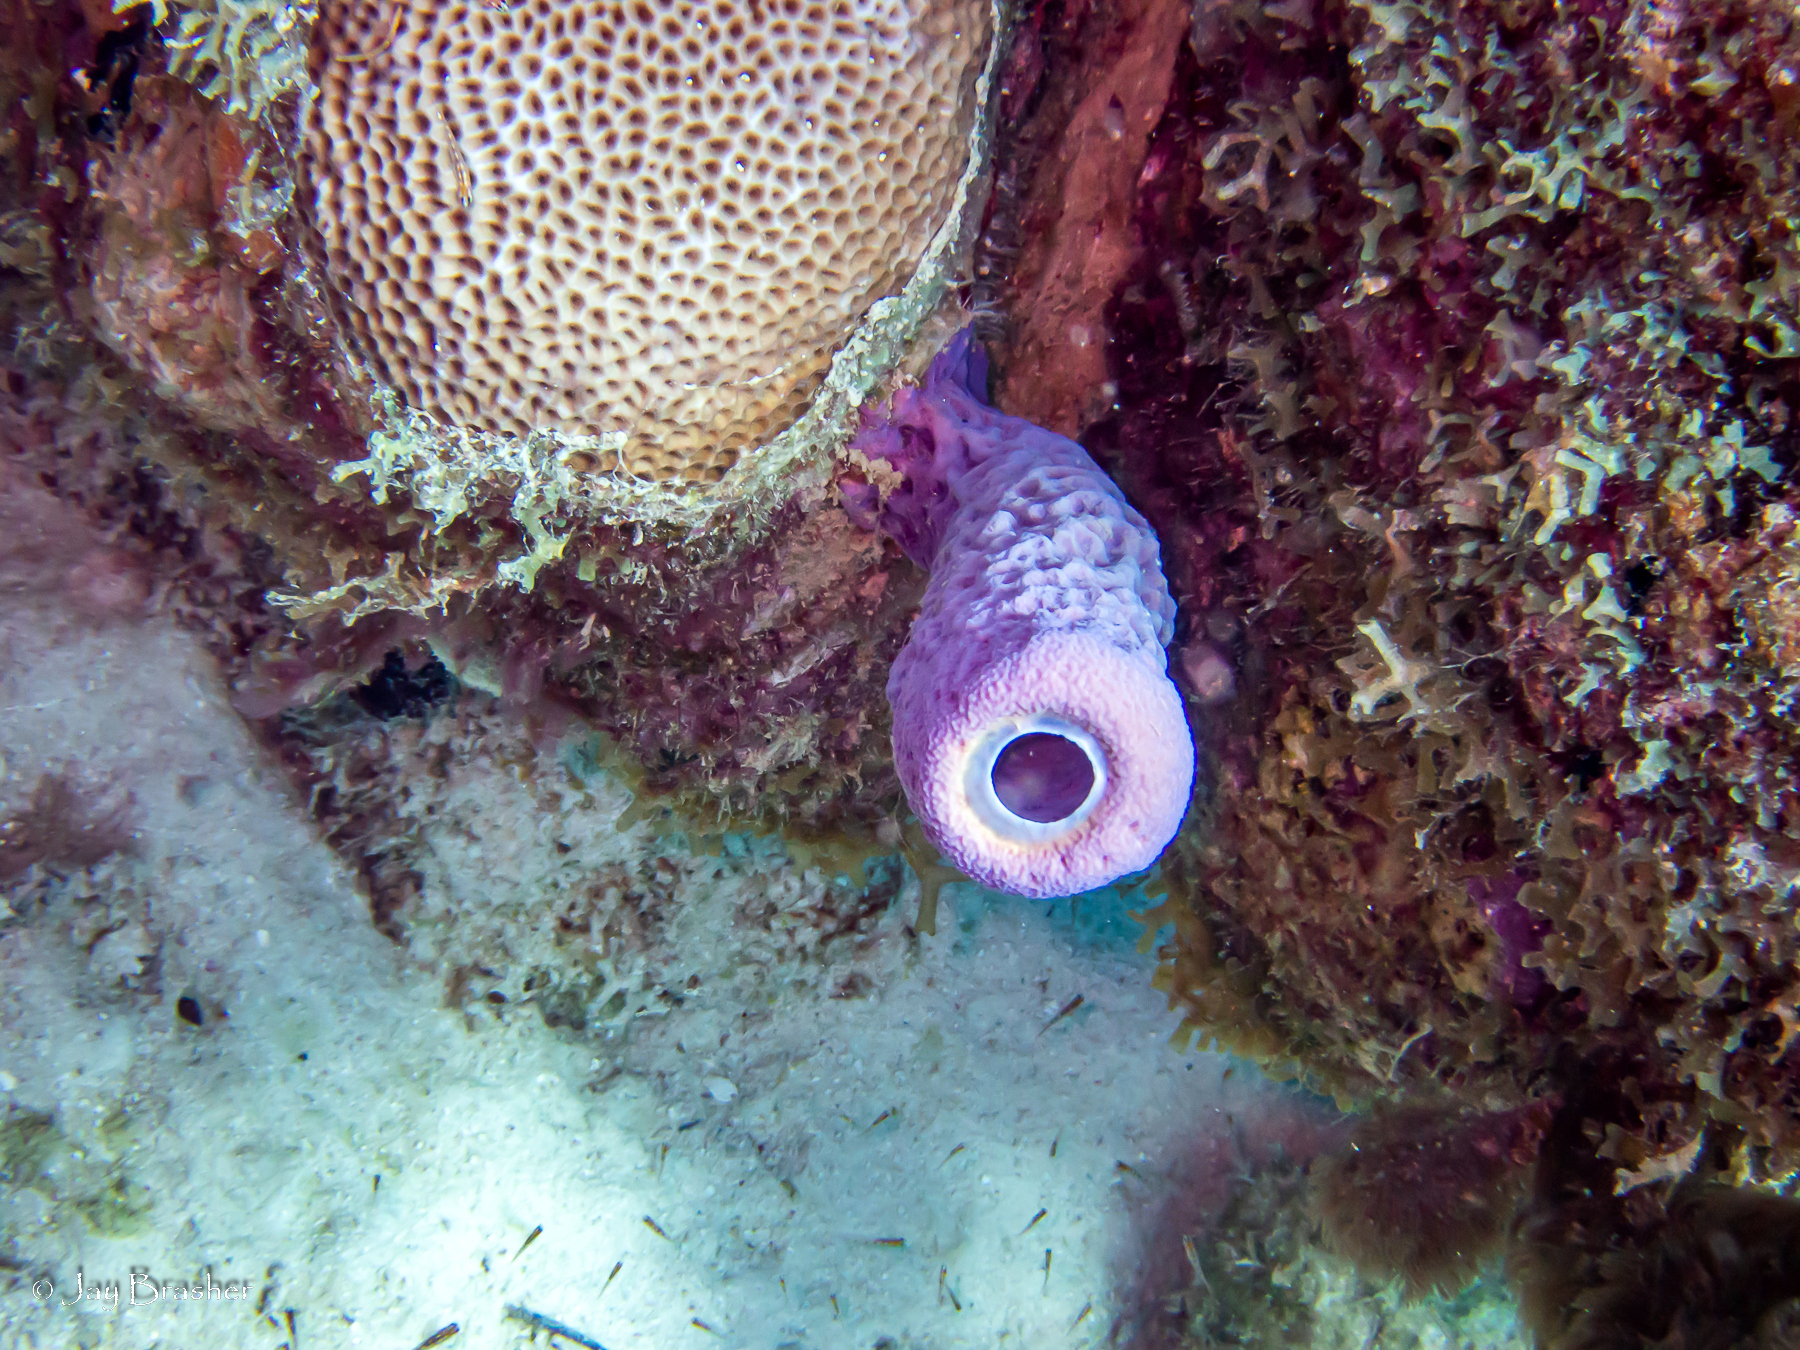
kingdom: Animalia
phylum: Porifera
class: Demospongiae
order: Verongiida
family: Aplysinidae
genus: Aplysina
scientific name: Aplysina archeri
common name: Stove-pipe sponge
